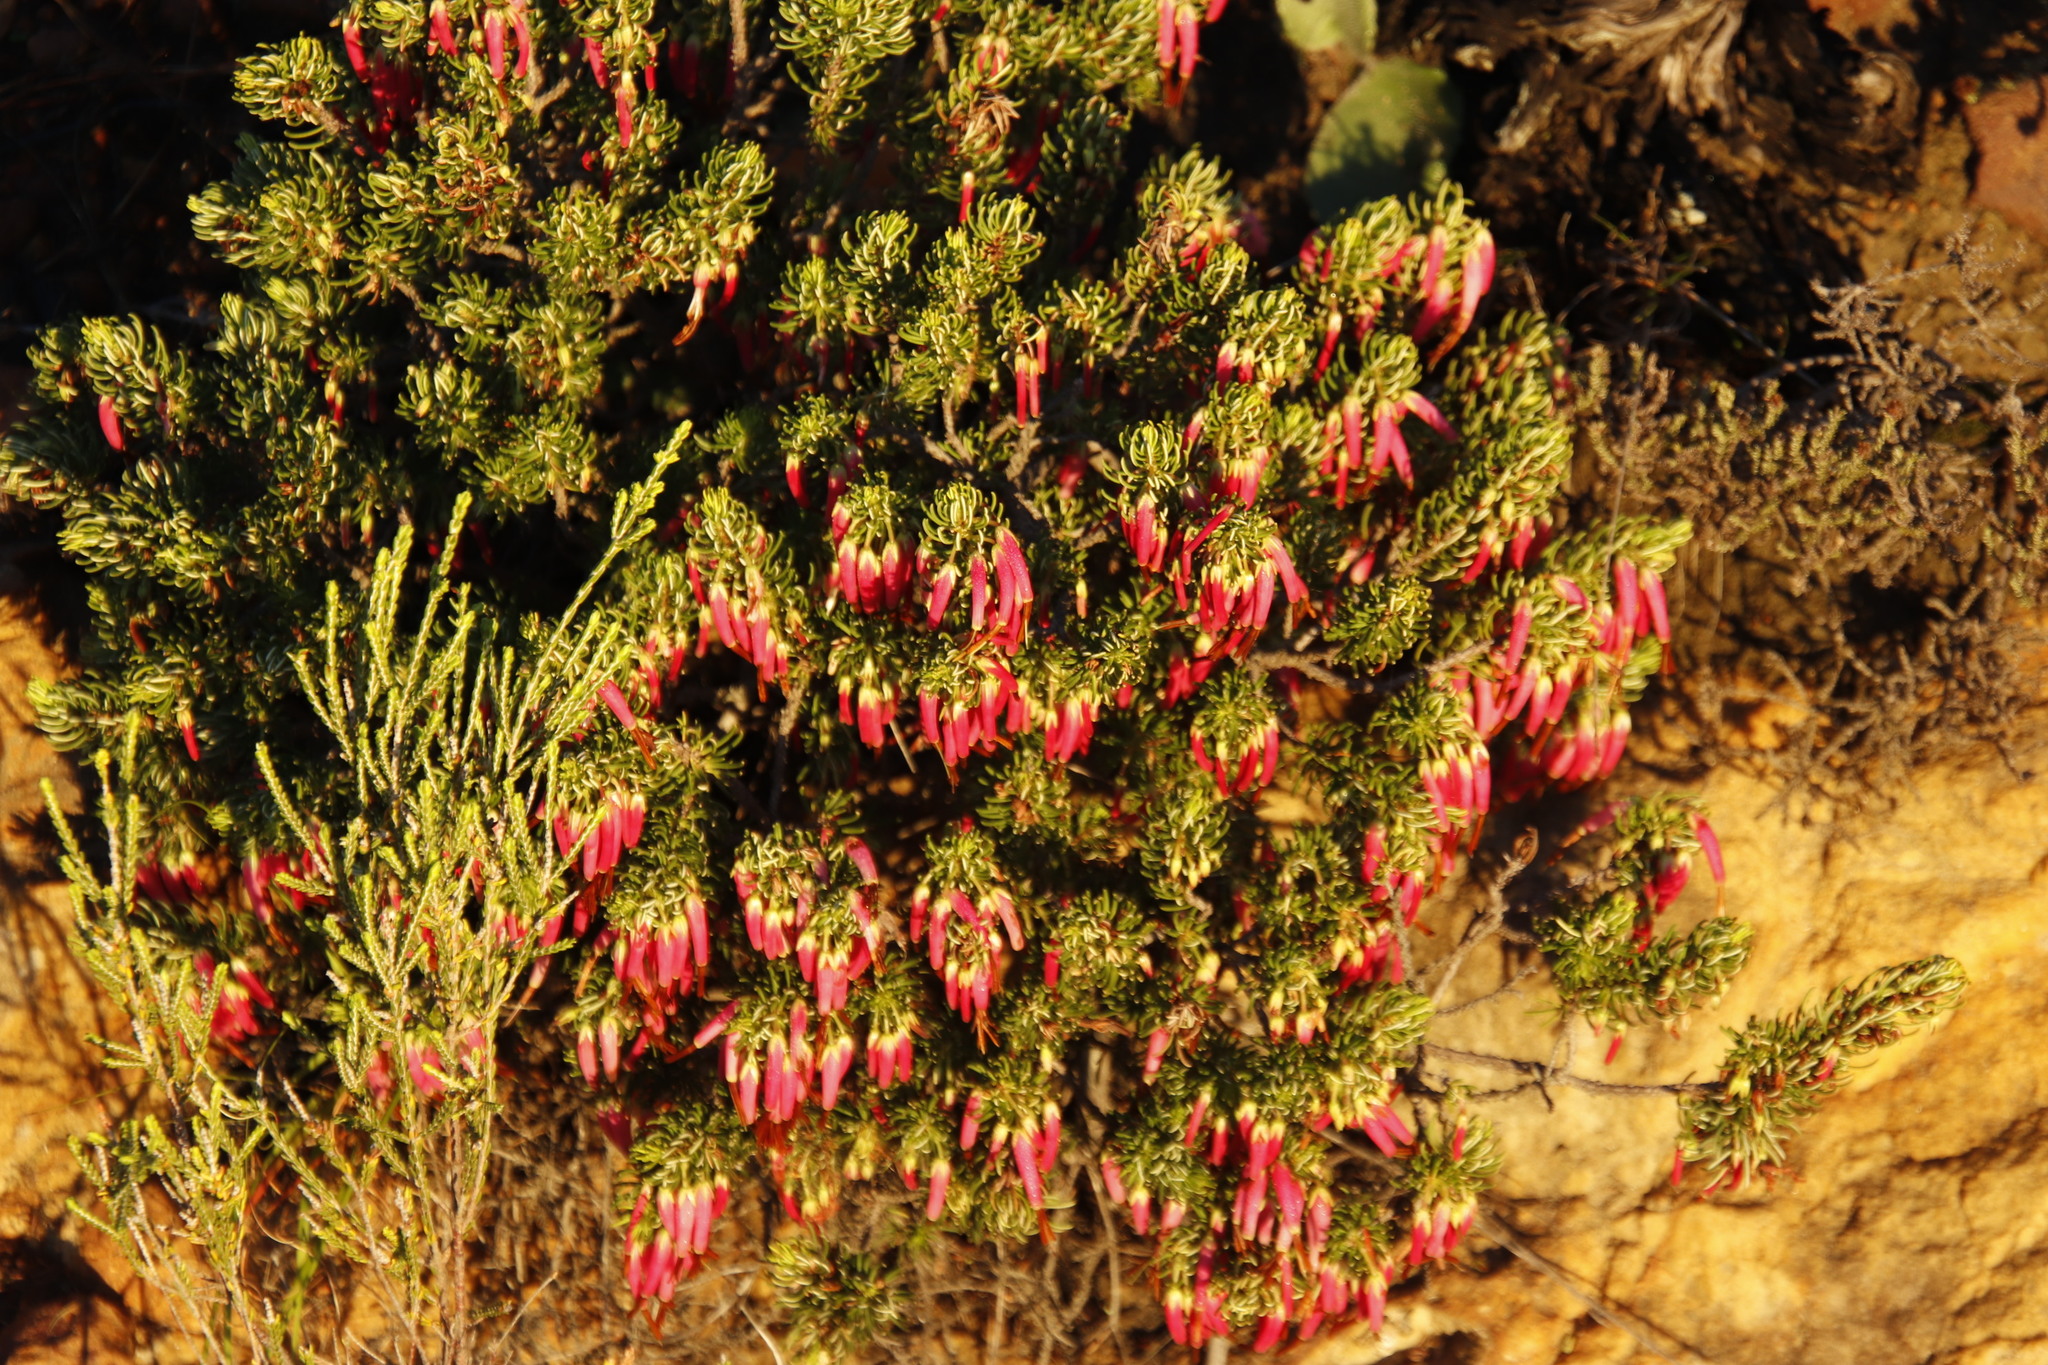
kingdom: Plantae
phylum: Tracheophyta
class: Magnoliopsida
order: Ericales
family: Ericaceae
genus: Erica
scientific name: Erica plukenetii
